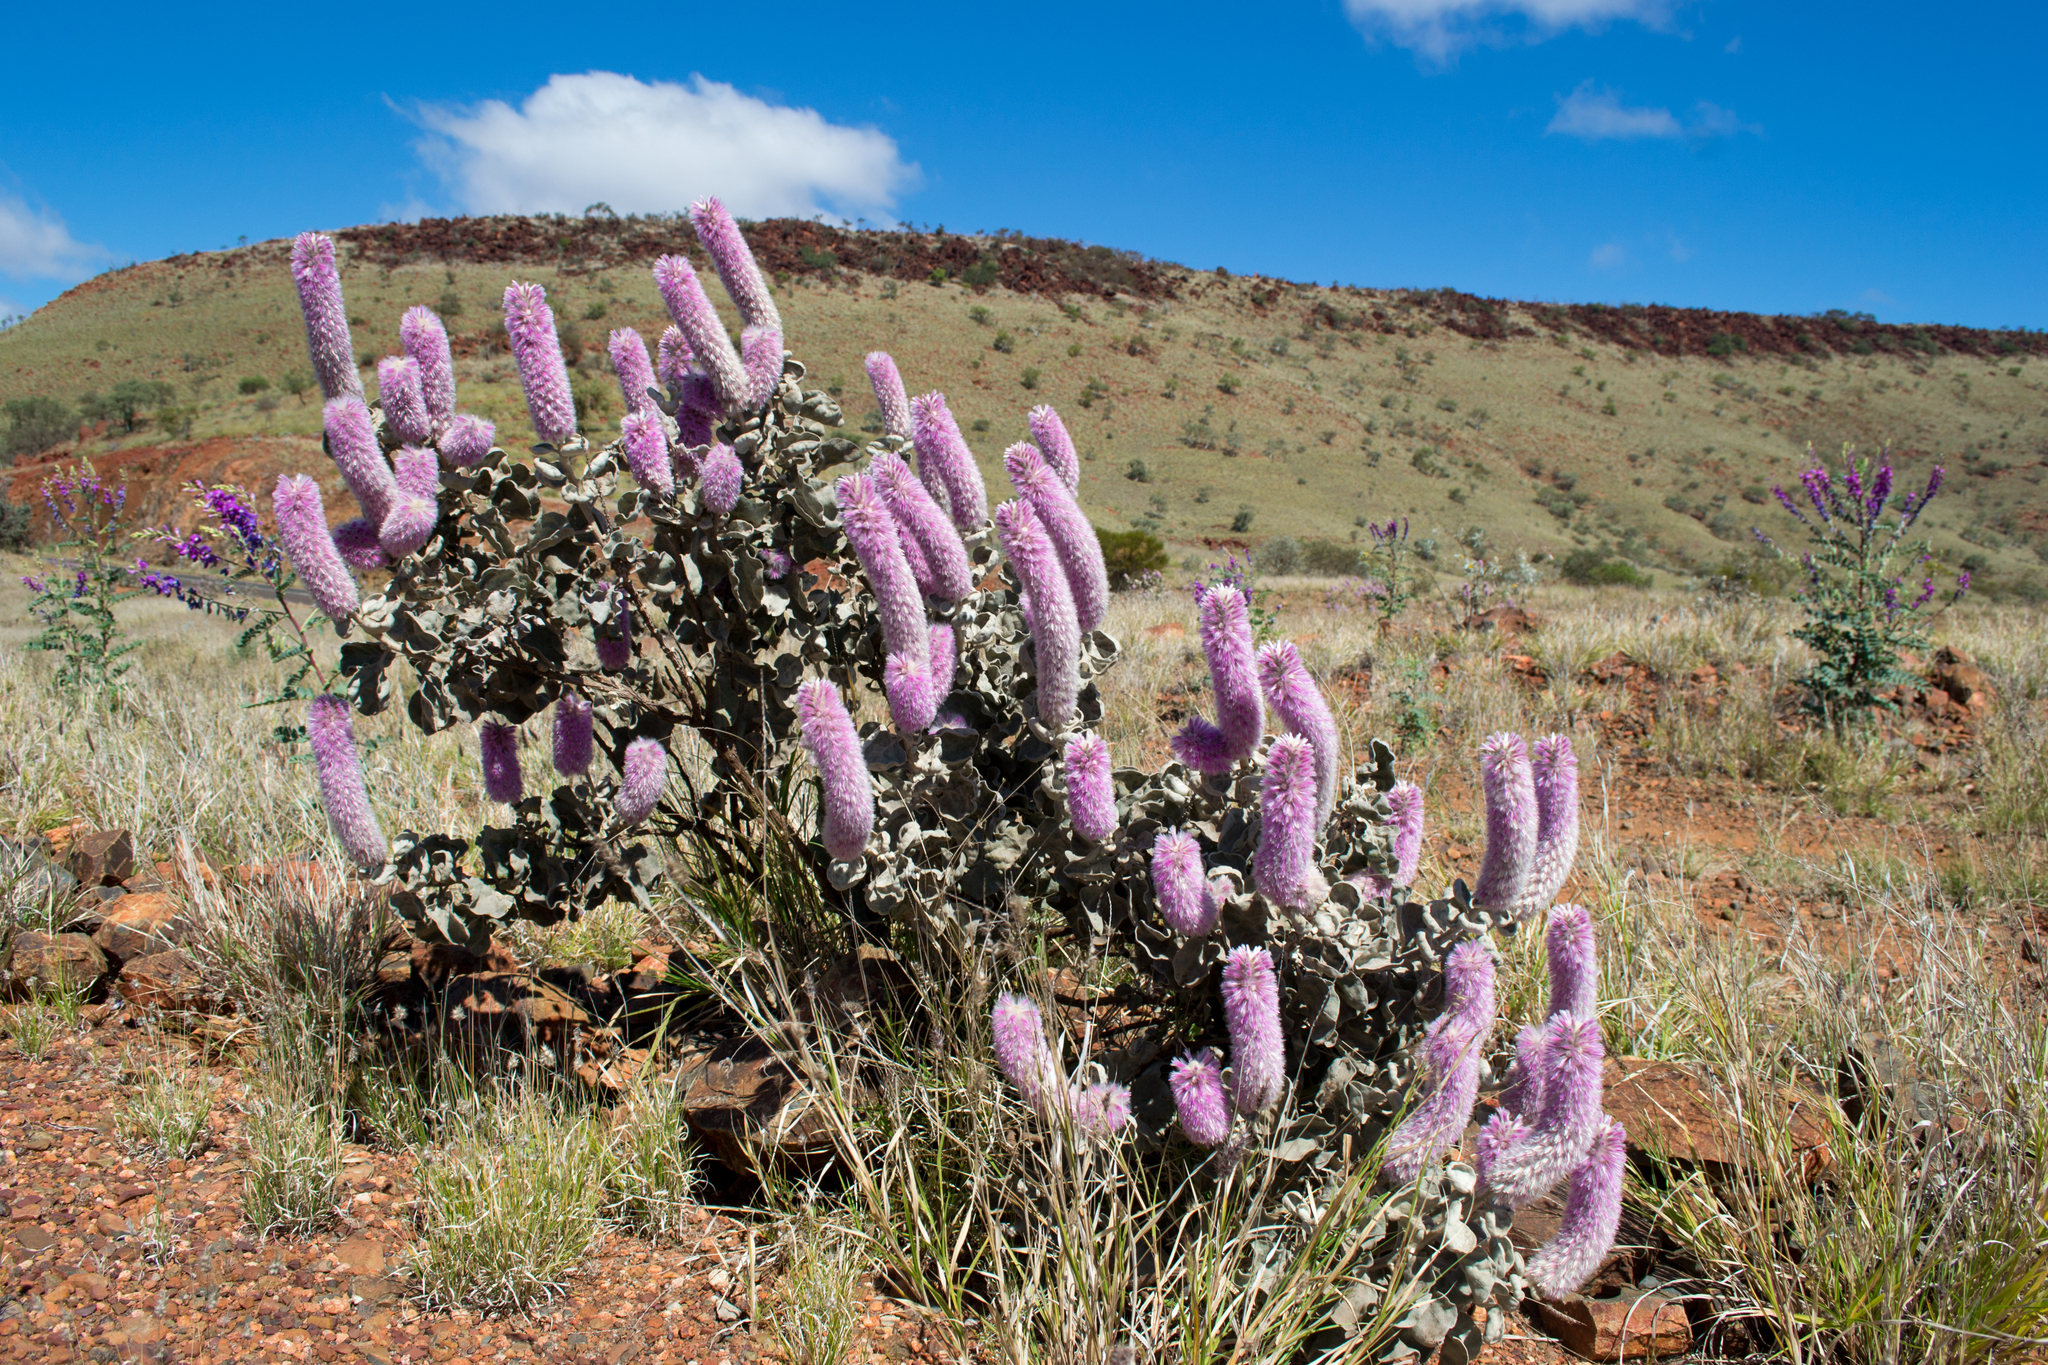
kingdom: Plantae
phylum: Tracheophyta
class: Magnoliopsida
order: Caryophyllales
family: Amaranthaceae
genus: Ptilotus
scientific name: Ptilotus rotundifolius
